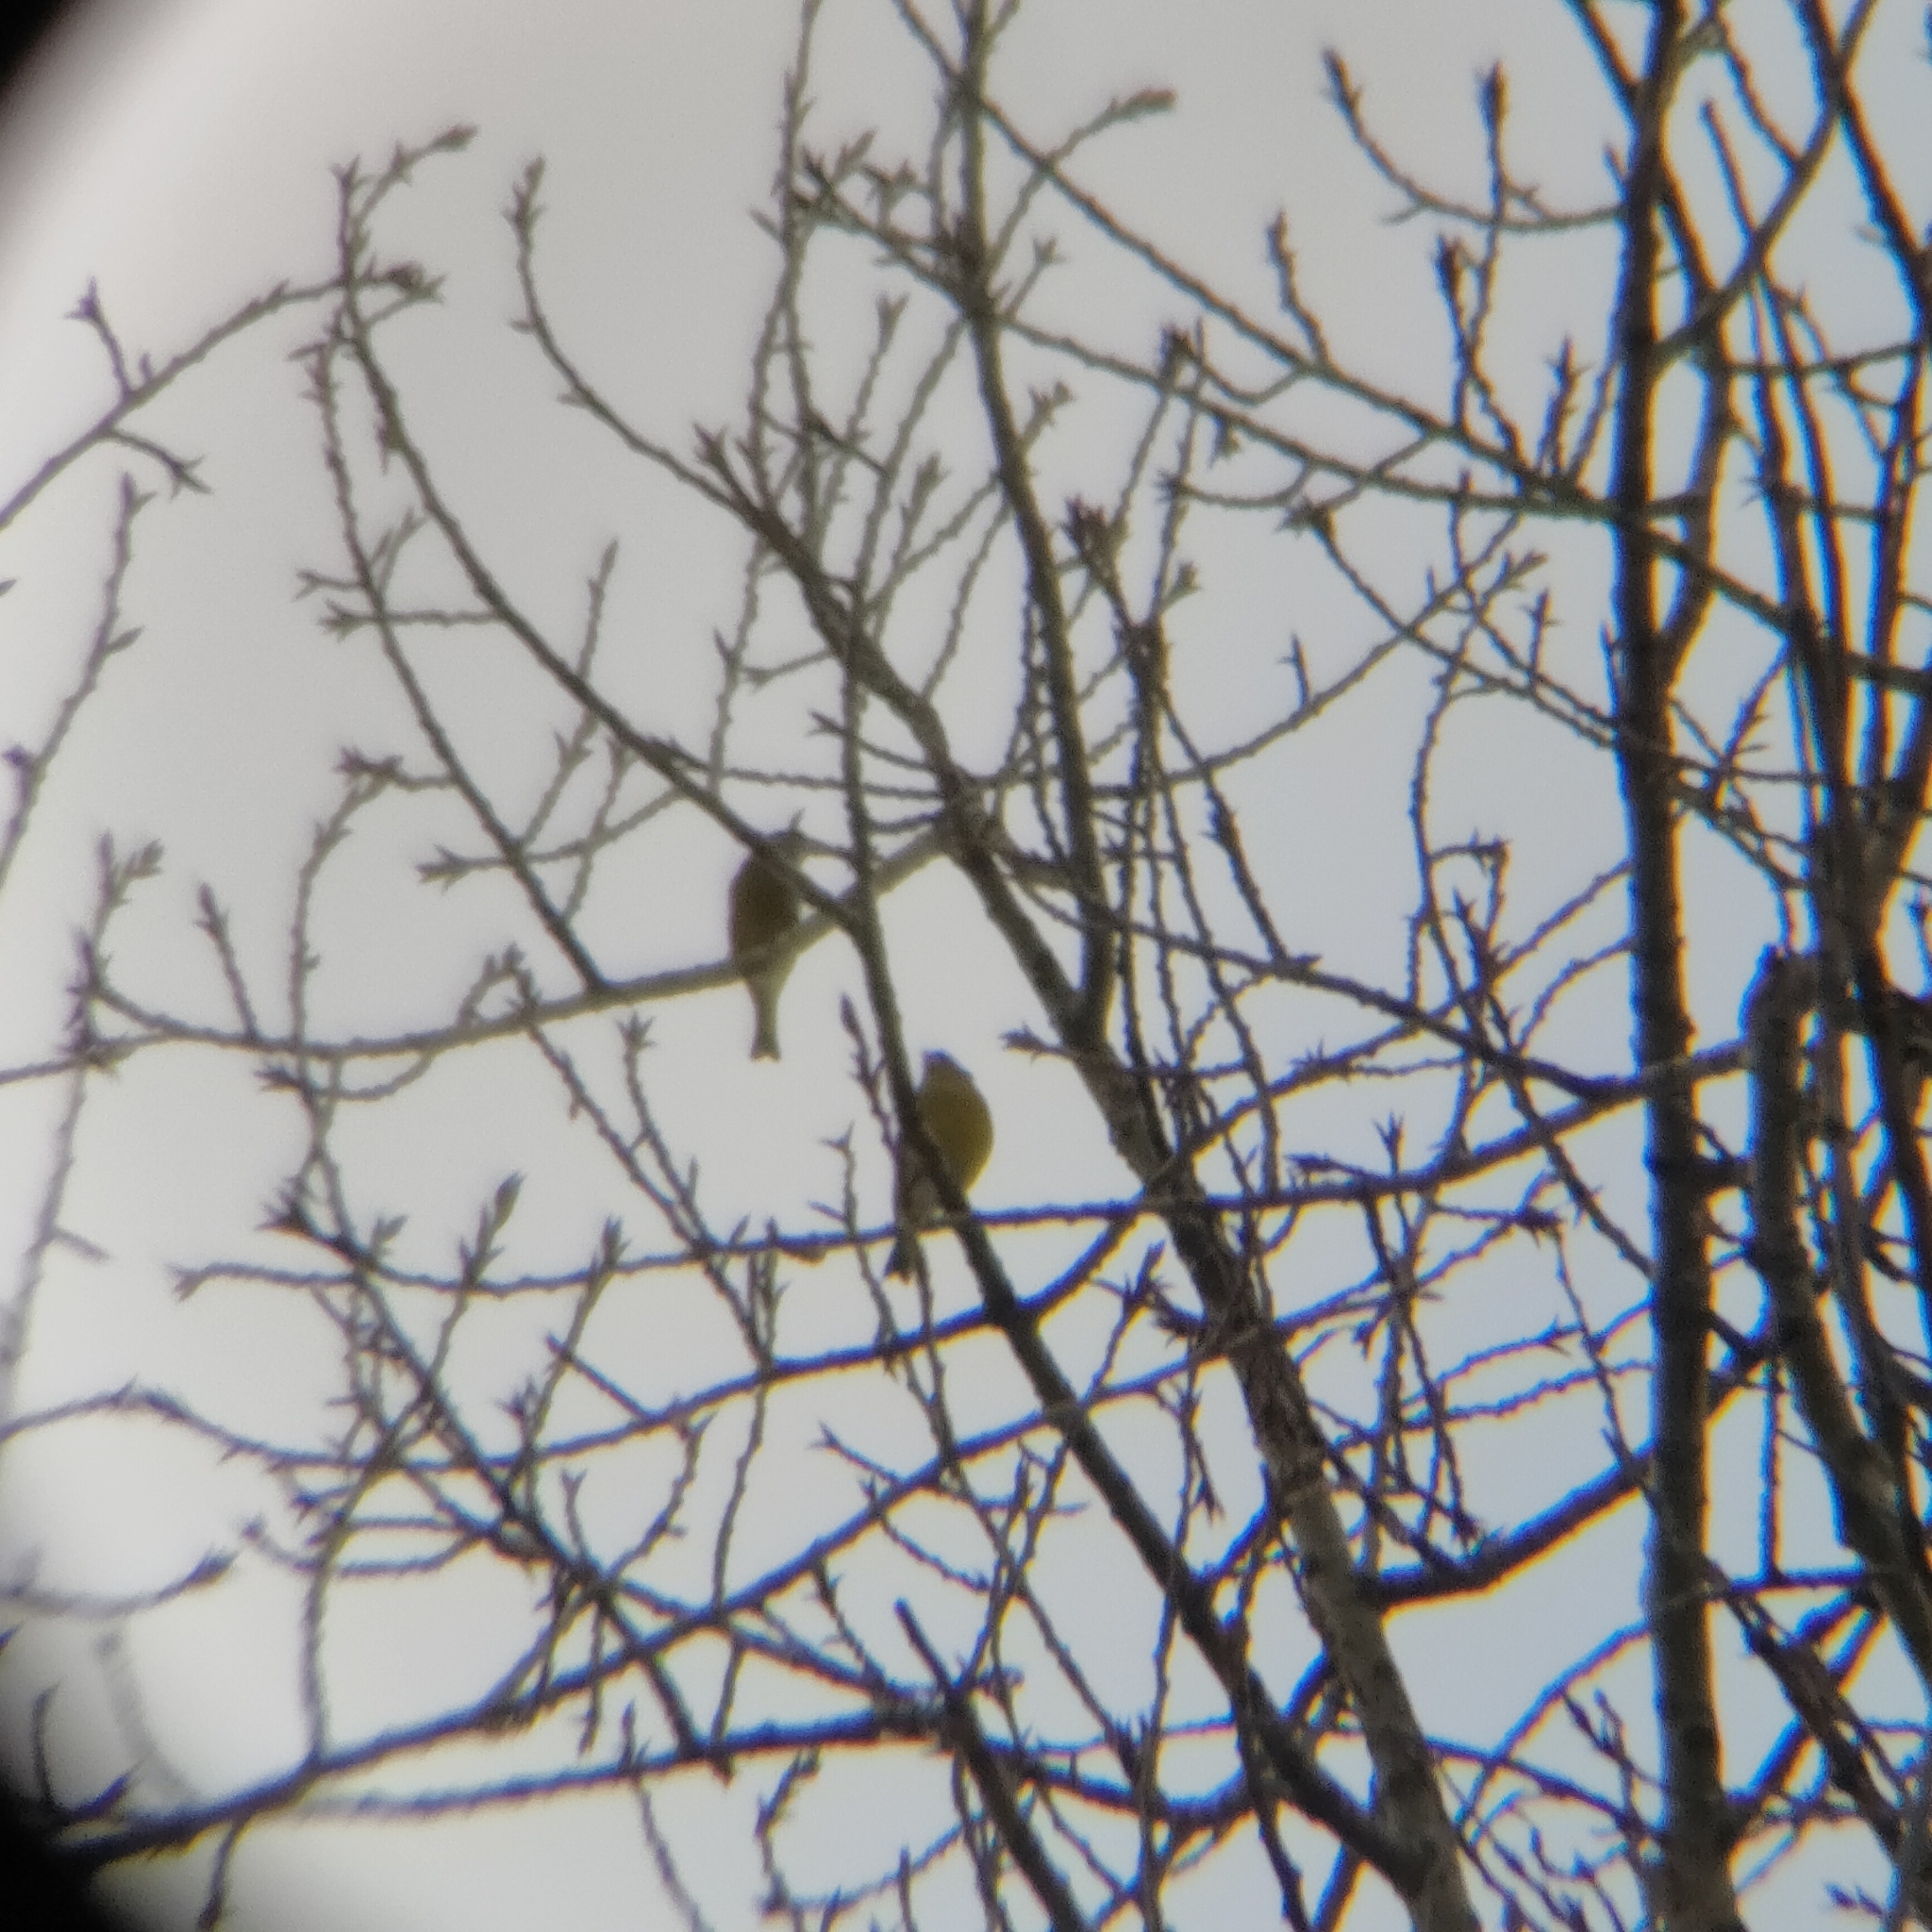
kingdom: Plantae
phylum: Tracheophyta
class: Liliopsida
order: Poales
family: Poaceae
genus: Chloris
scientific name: Chloris chloris
